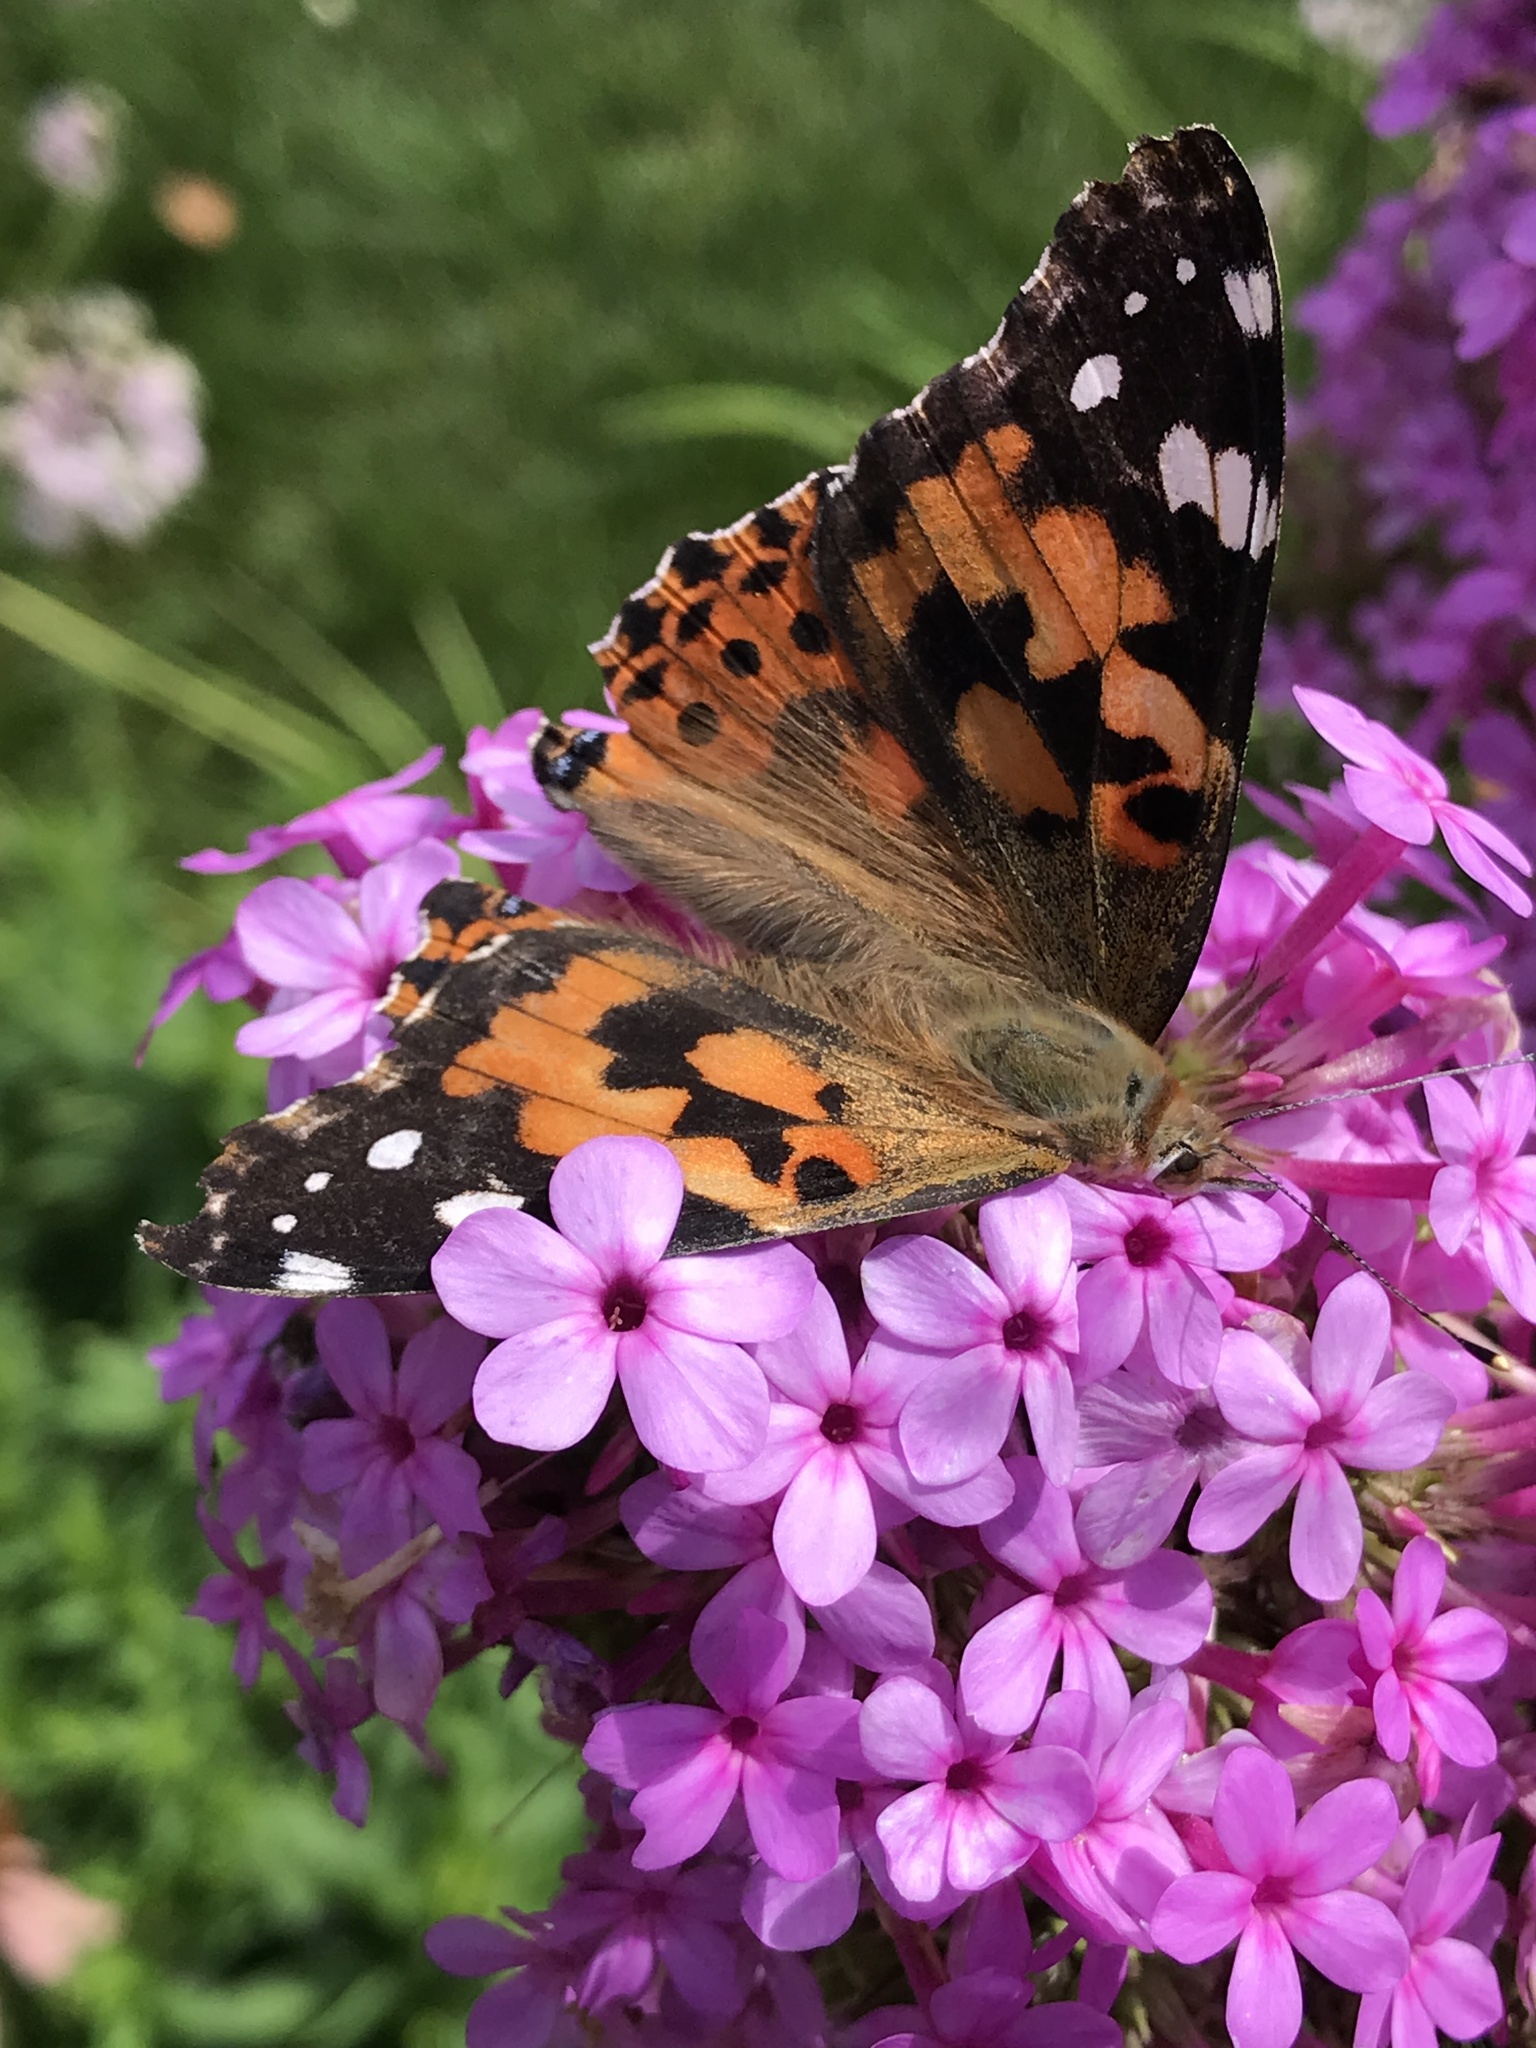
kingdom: Animalia
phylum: Arthropoda
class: Insecta
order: Lepidoptera
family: Nymphalidae
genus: Vanessa
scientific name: Vanessa cardui
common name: Painted lady
